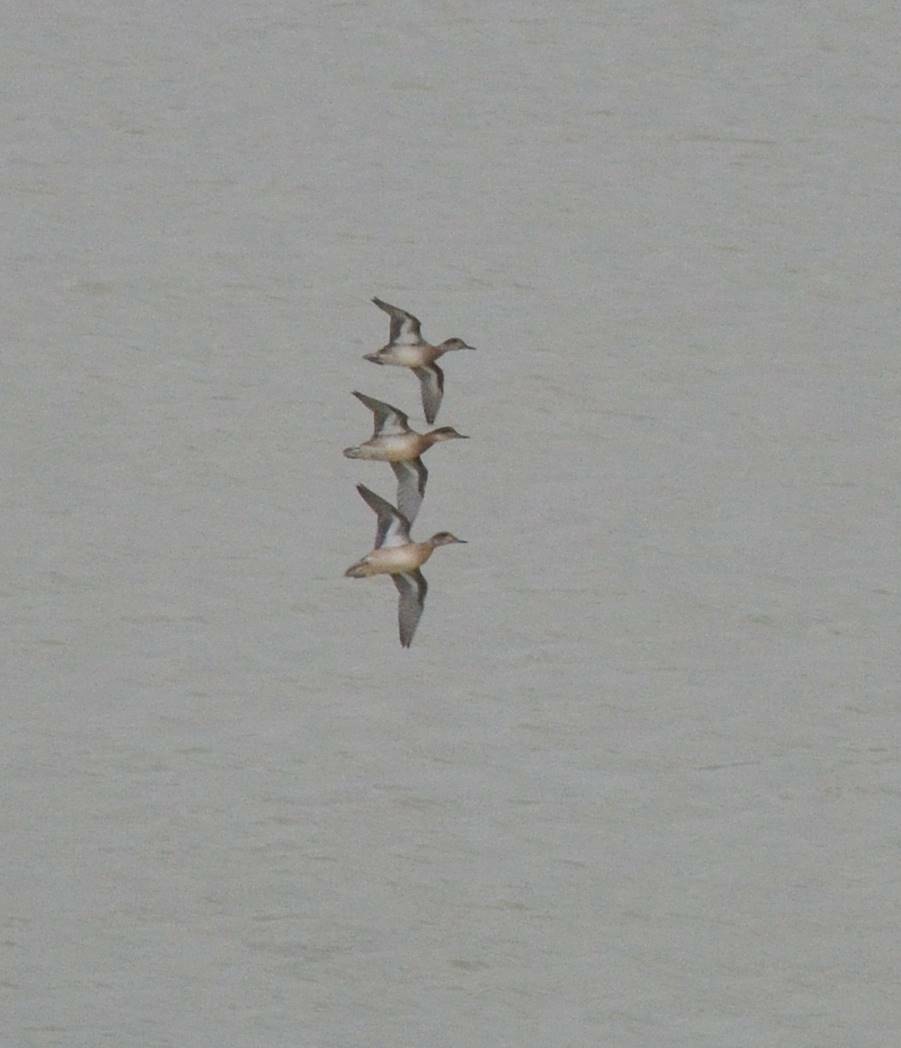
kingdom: Animalia
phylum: Chordata
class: Aves
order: Anseriformes
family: Anatidae
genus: Anas
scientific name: Anas crecca
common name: Eurasian teal
